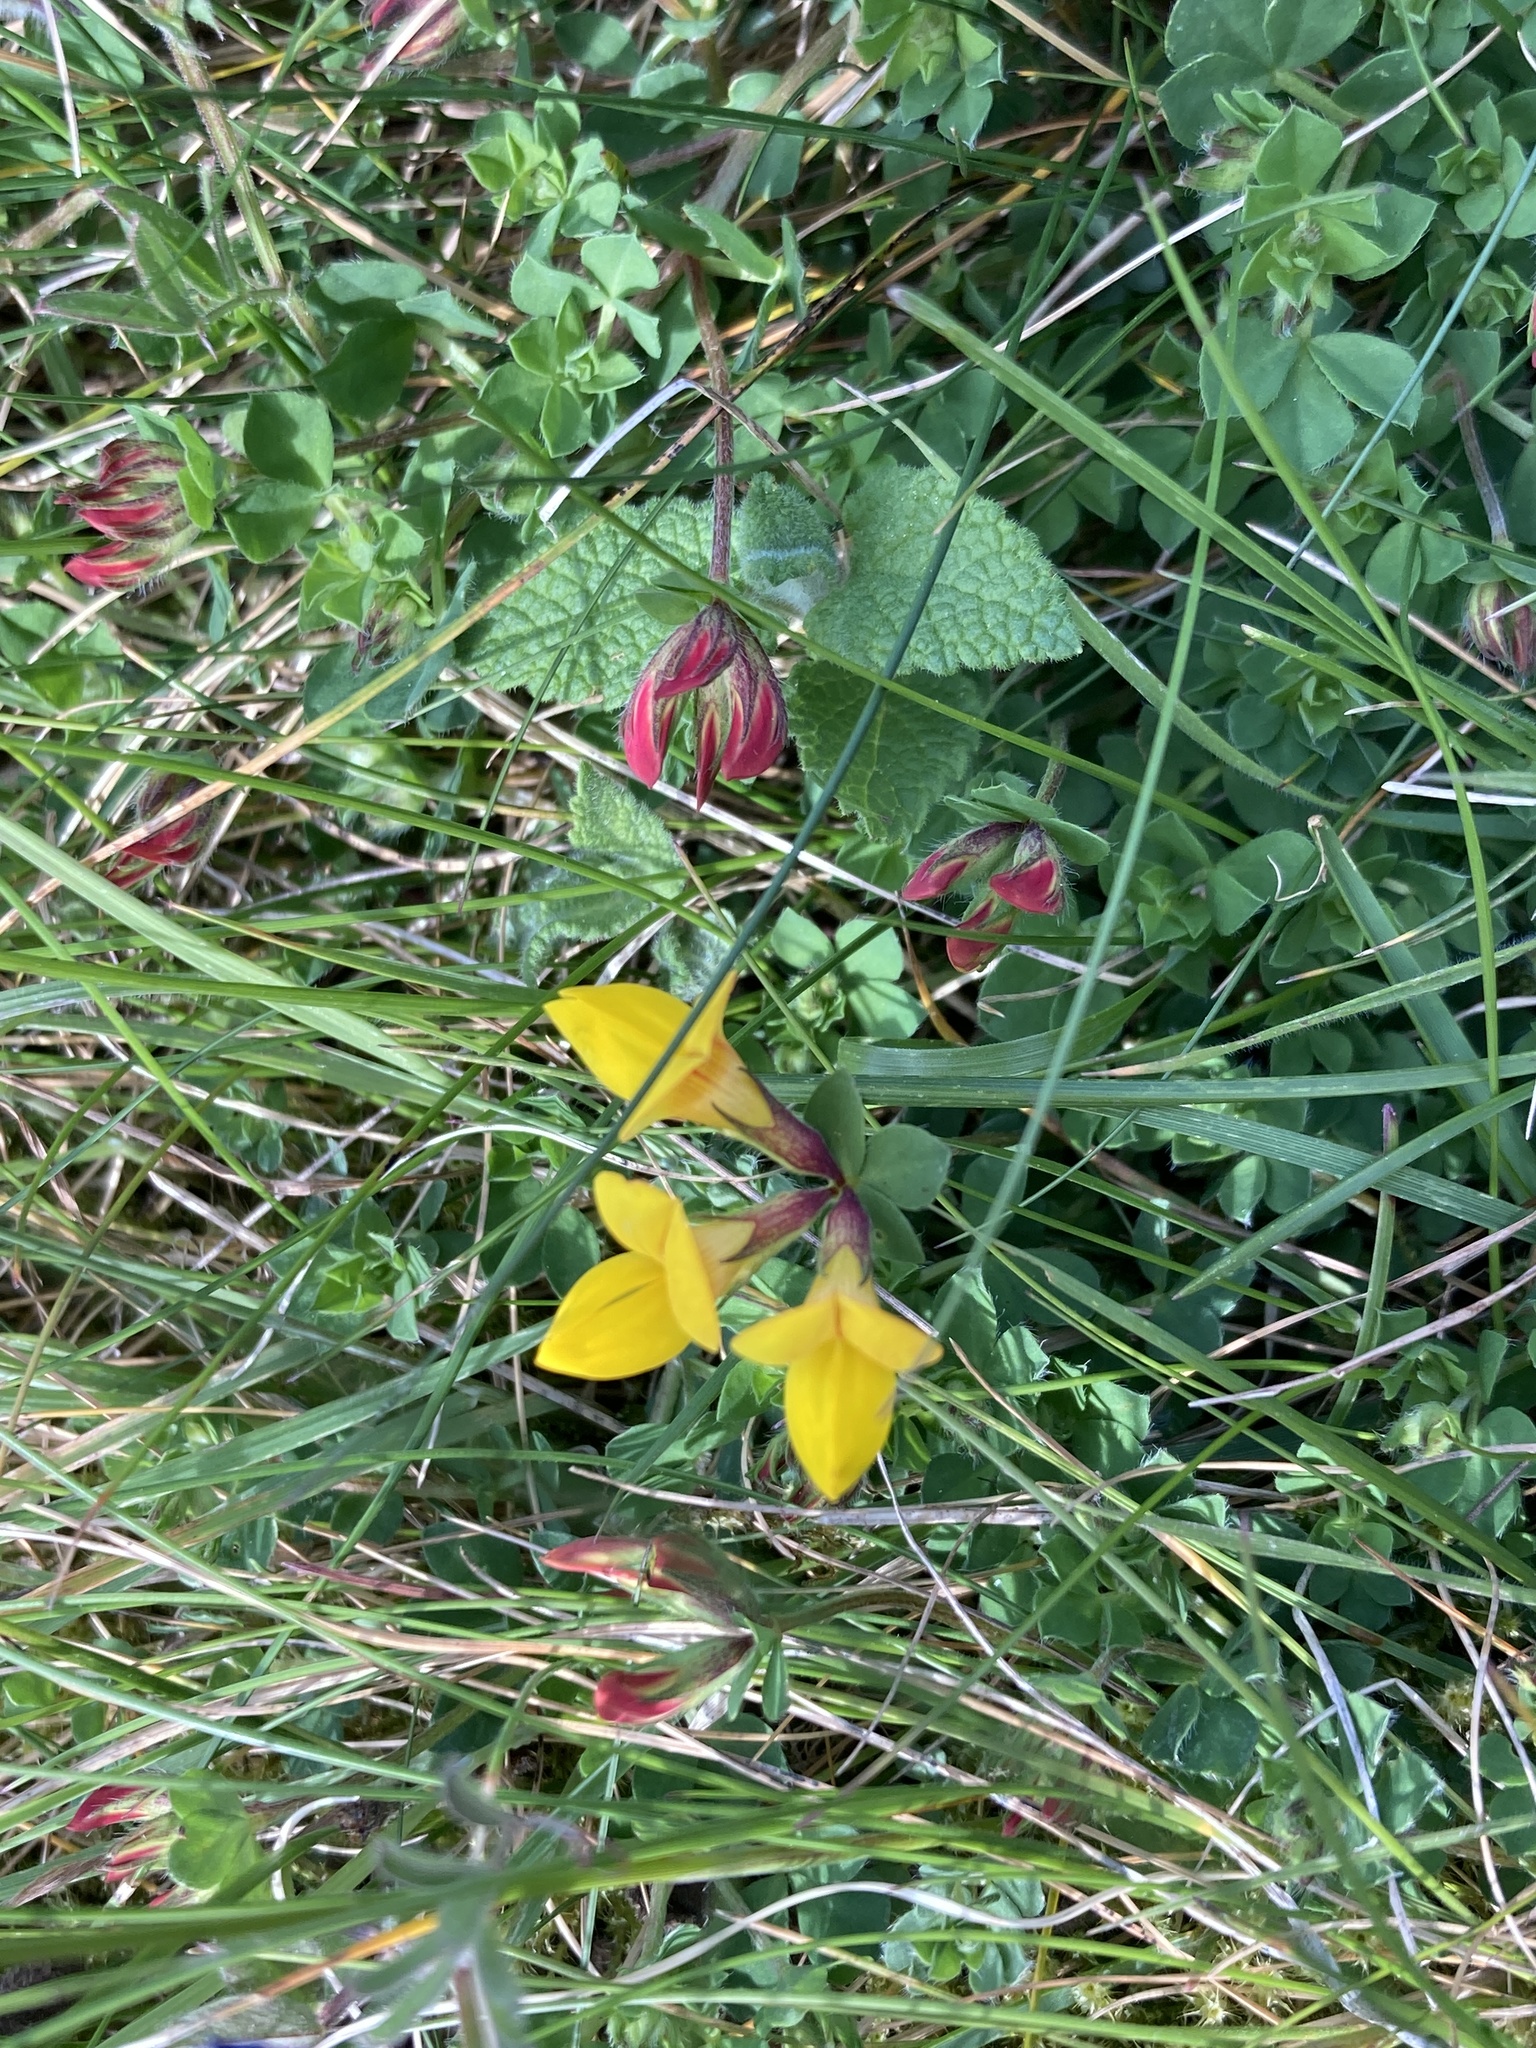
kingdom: Plantae
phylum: Tracheophyta
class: Magnoliopsida
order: Fabales
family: Fabaceae
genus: Lotus
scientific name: Lotus corniculatus
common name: Common bird's-foot-trefoil
